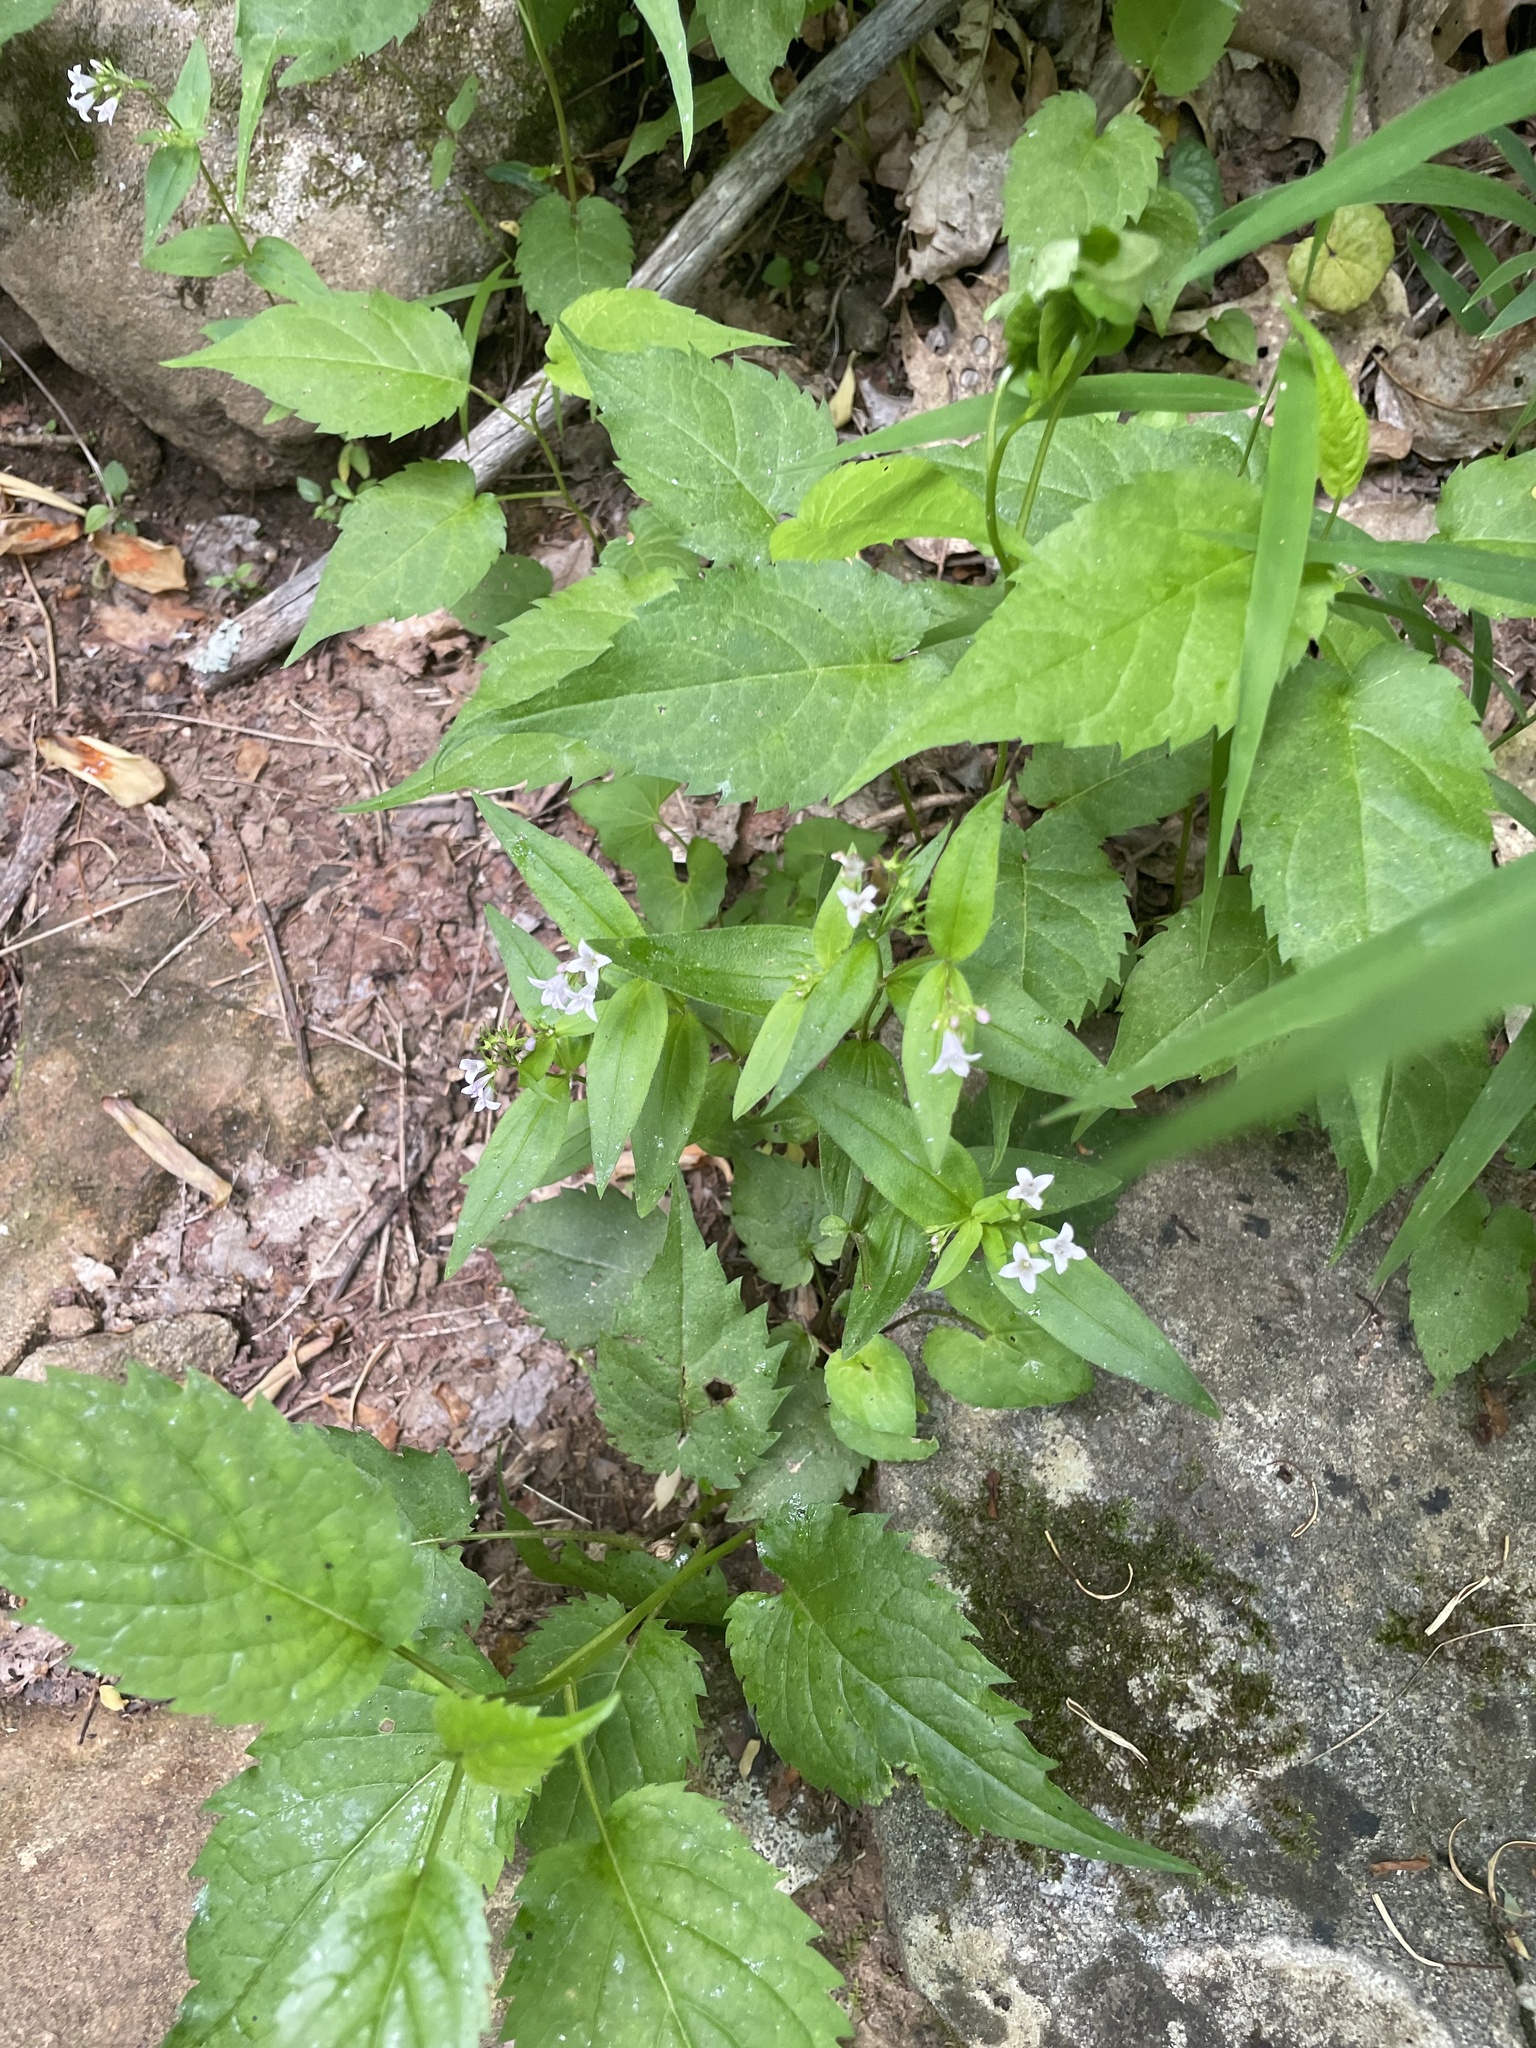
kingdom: Plantae
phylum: Tracheophyta
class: Magnoliopsida
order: Gentianales
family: Rubiaceae
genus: Houstonia
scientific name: Houstonia purpurea
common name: Summer bluet
